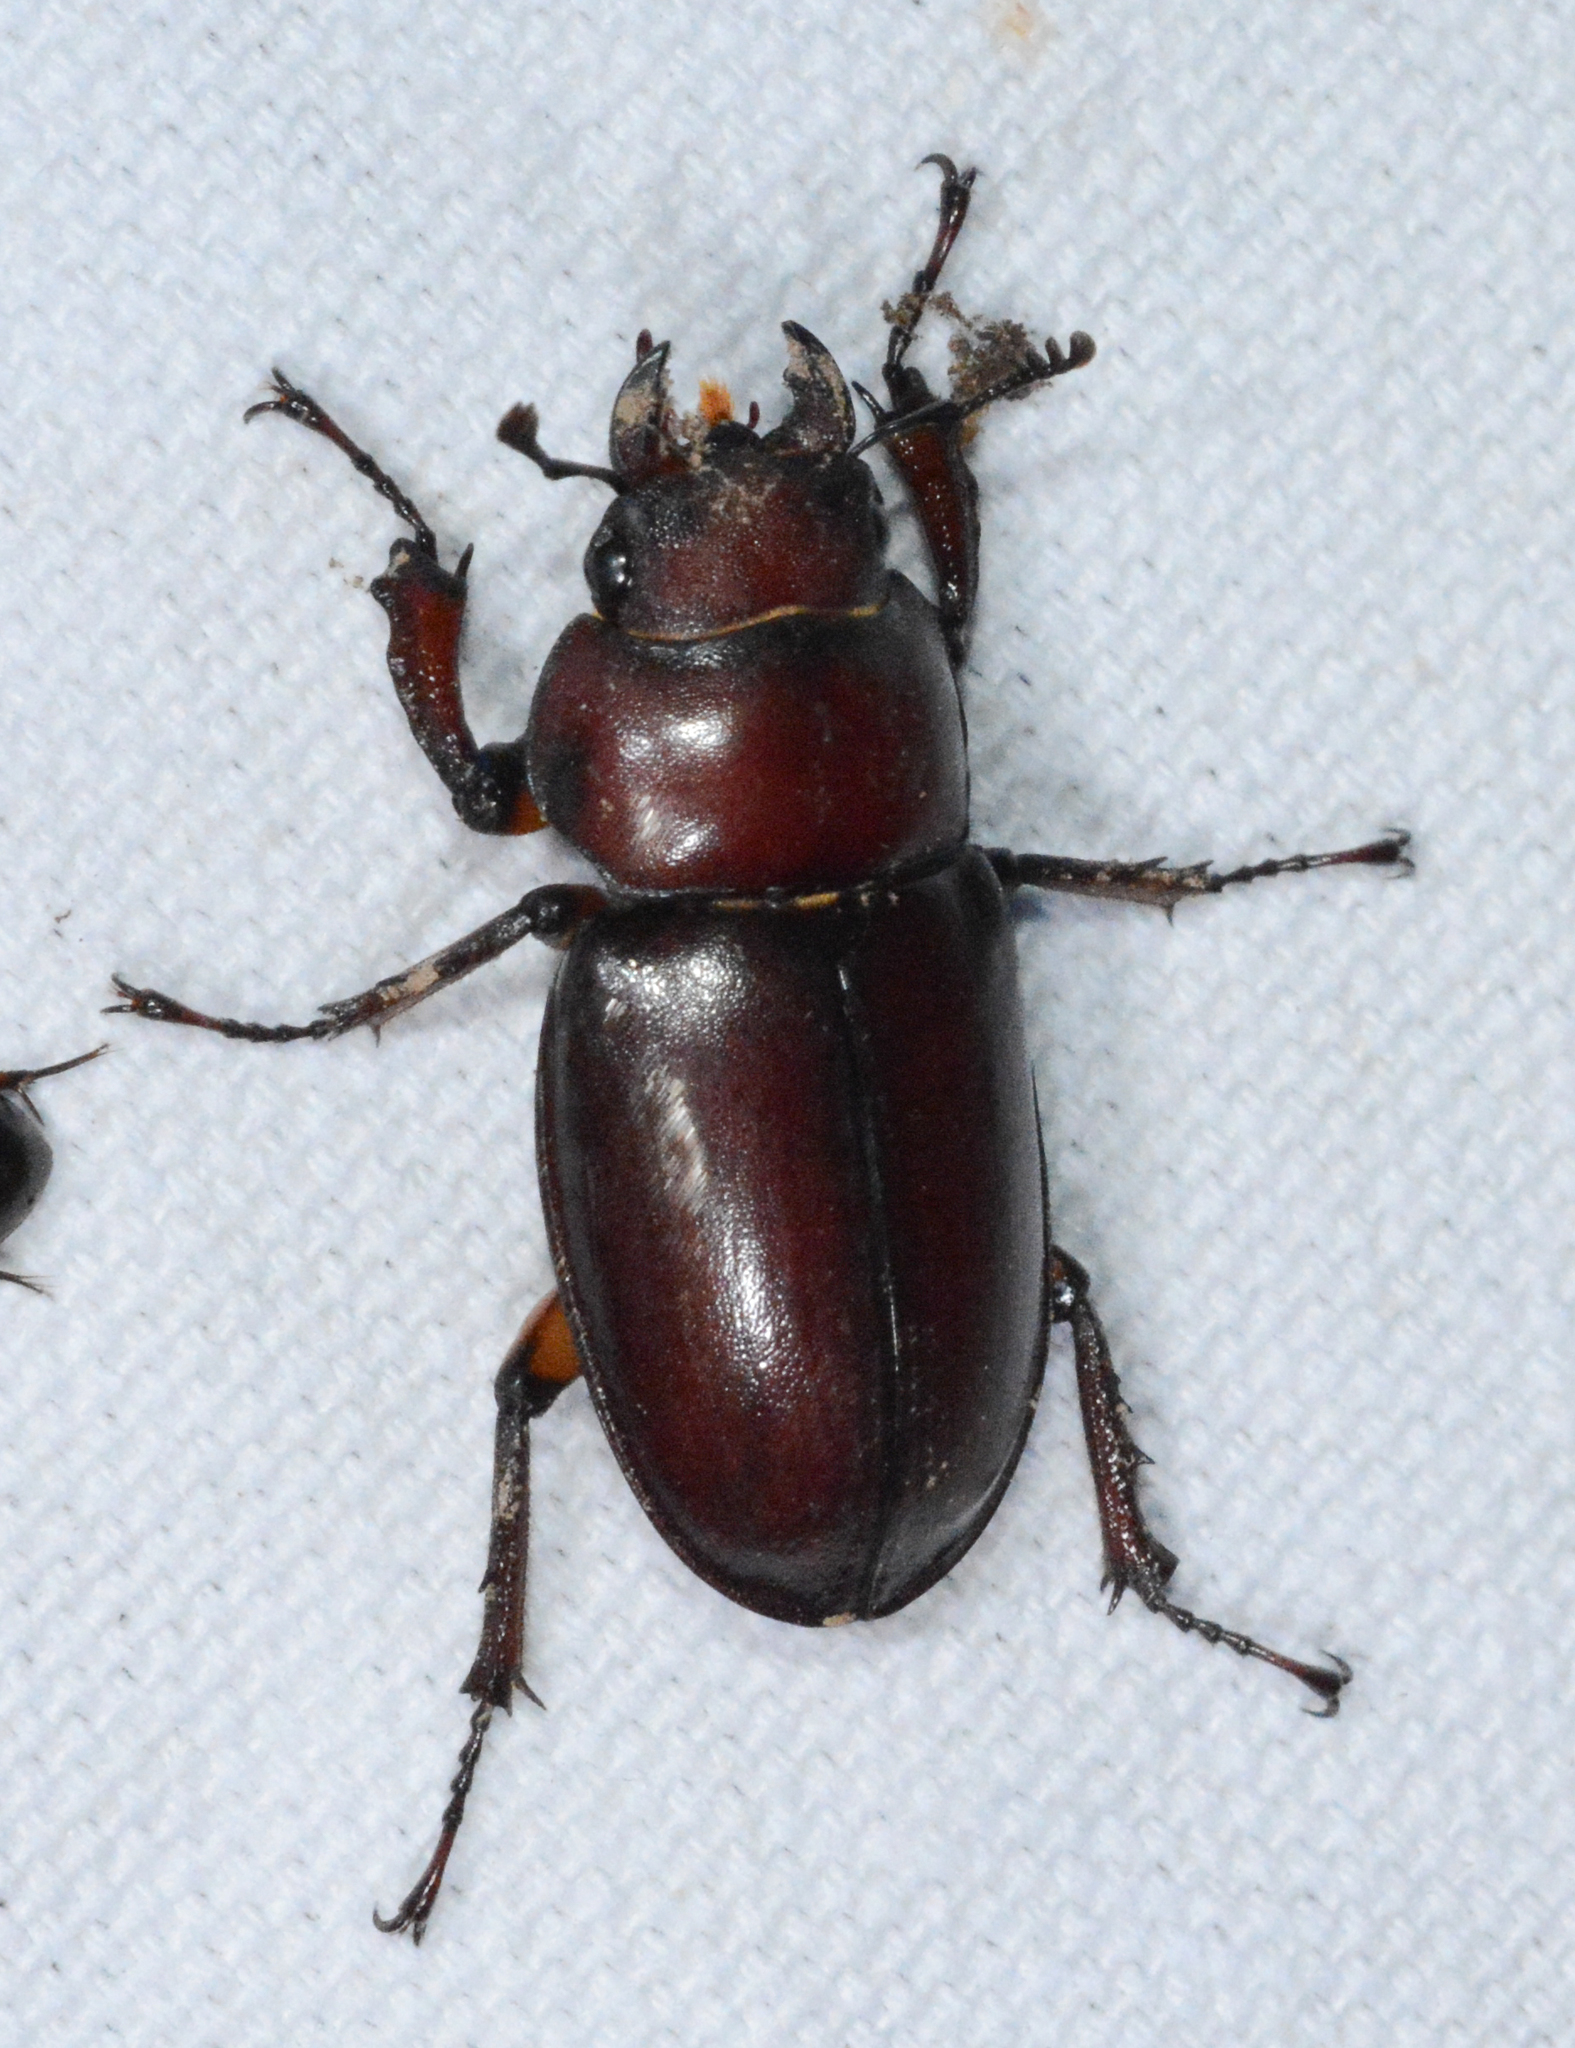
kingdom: Animalia
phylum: Arthropoda
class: Insecta
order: Coleoptera
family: Lucanidae
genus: Lucanus
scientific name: Lucanus capreolus
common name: Stag beetle
